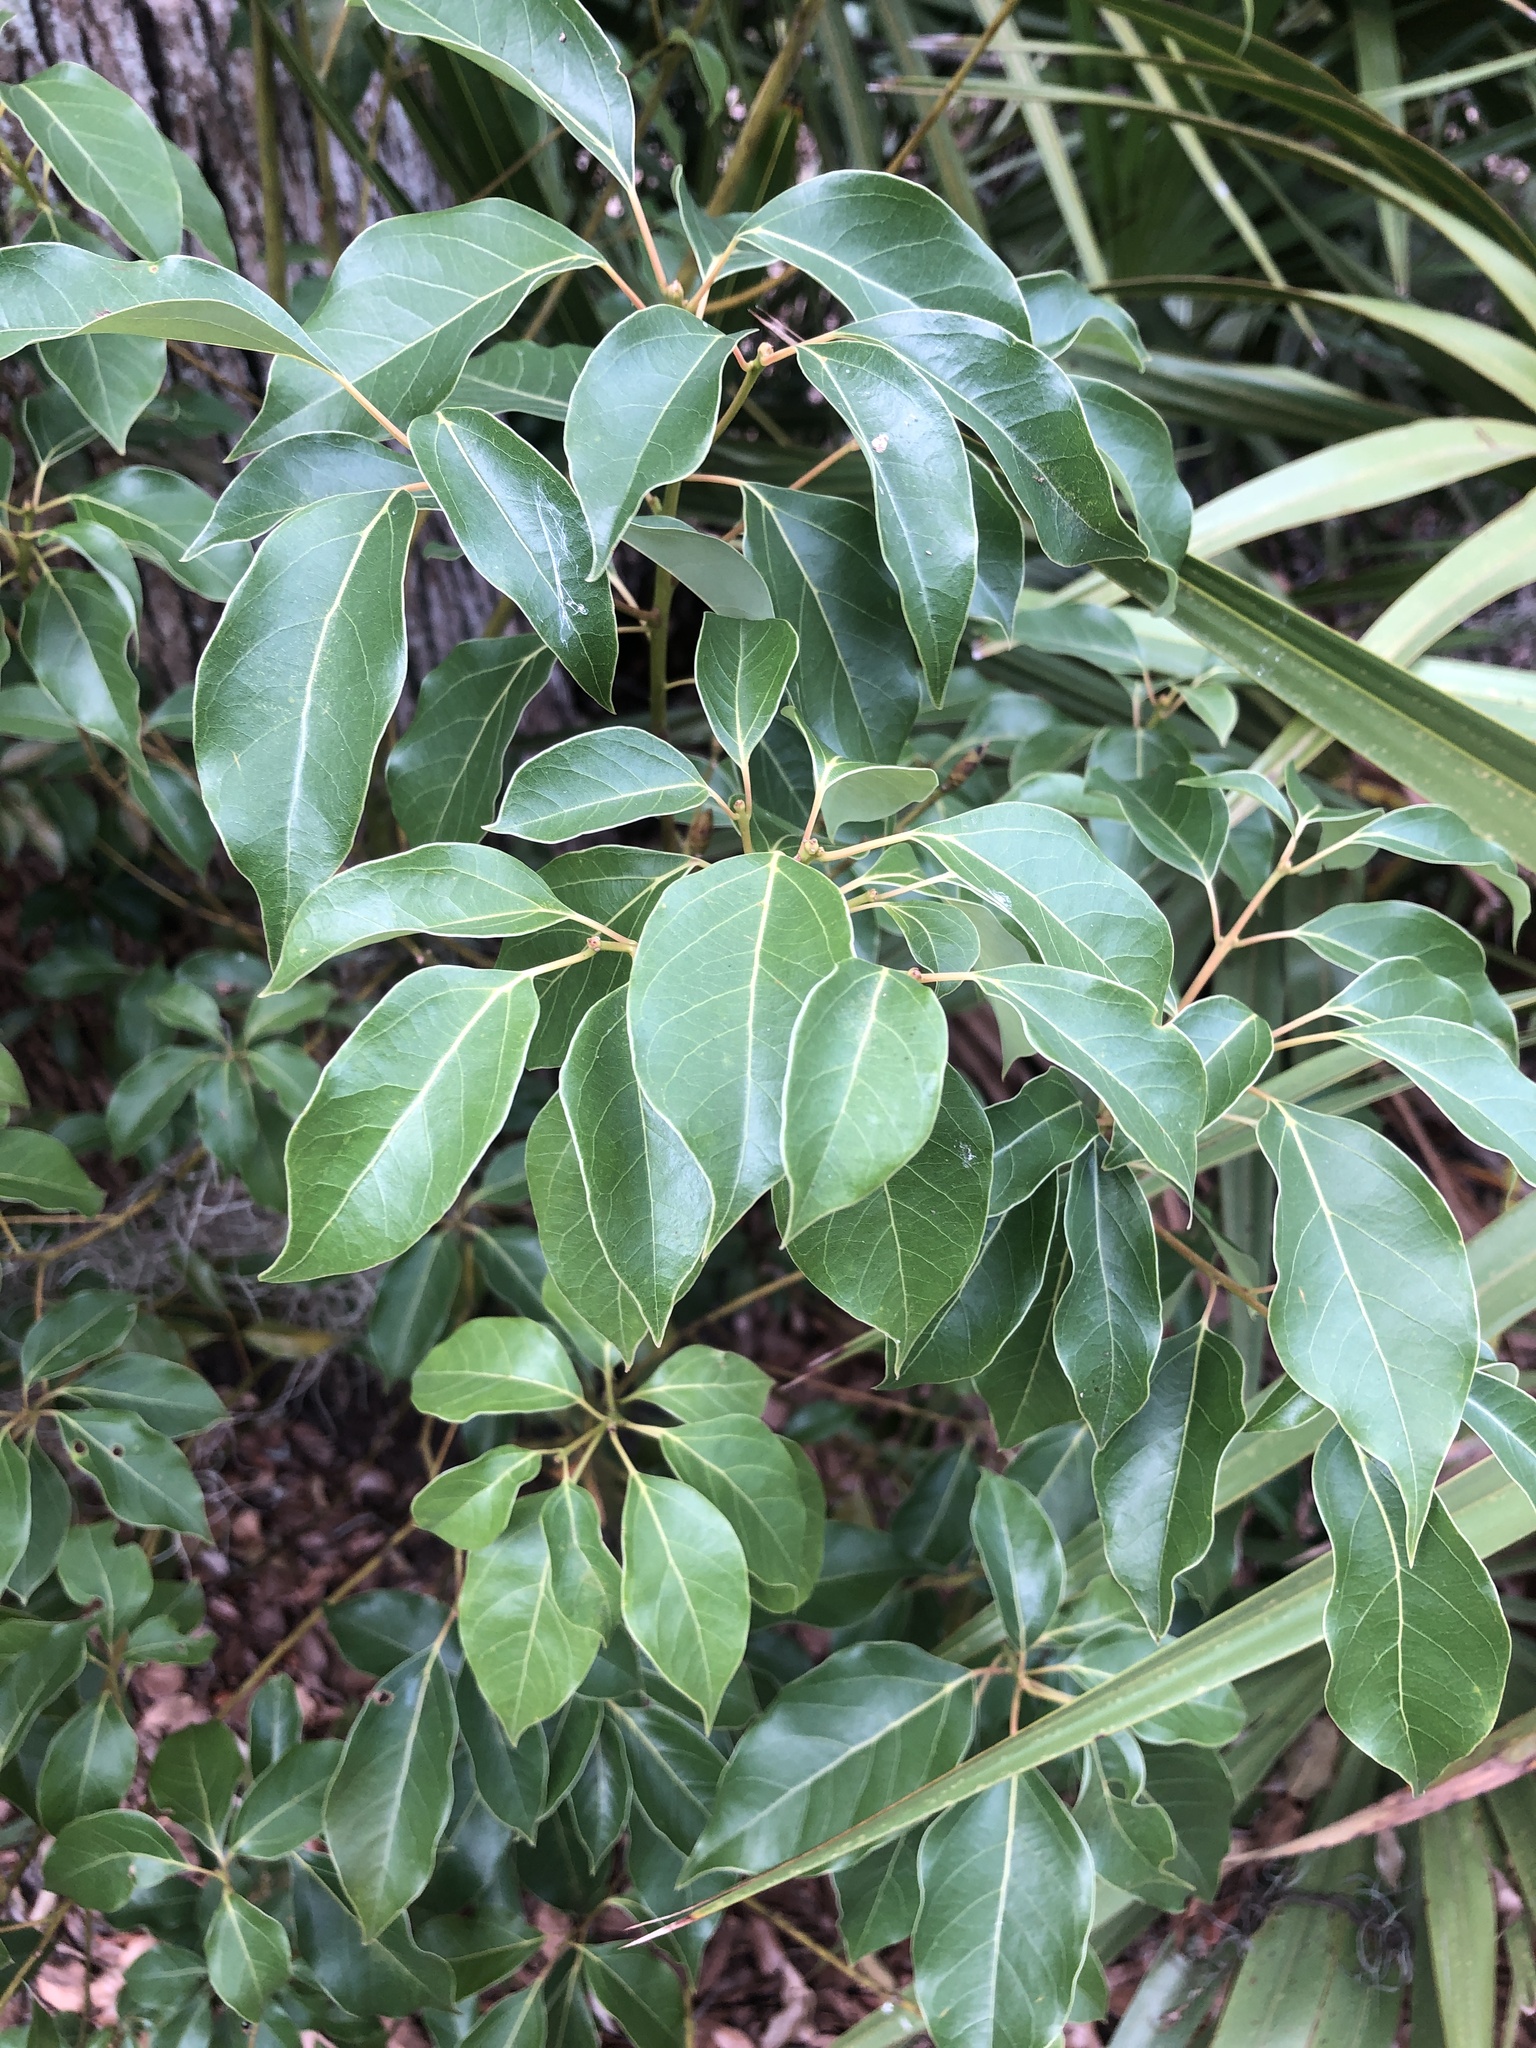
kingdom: Plantae
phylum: Tracheophyta
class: Magnoliopsida
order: Laurales
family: Lauraceae
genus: Cinnamomum
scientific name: Cinnamomum camphora
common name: Camphortree
